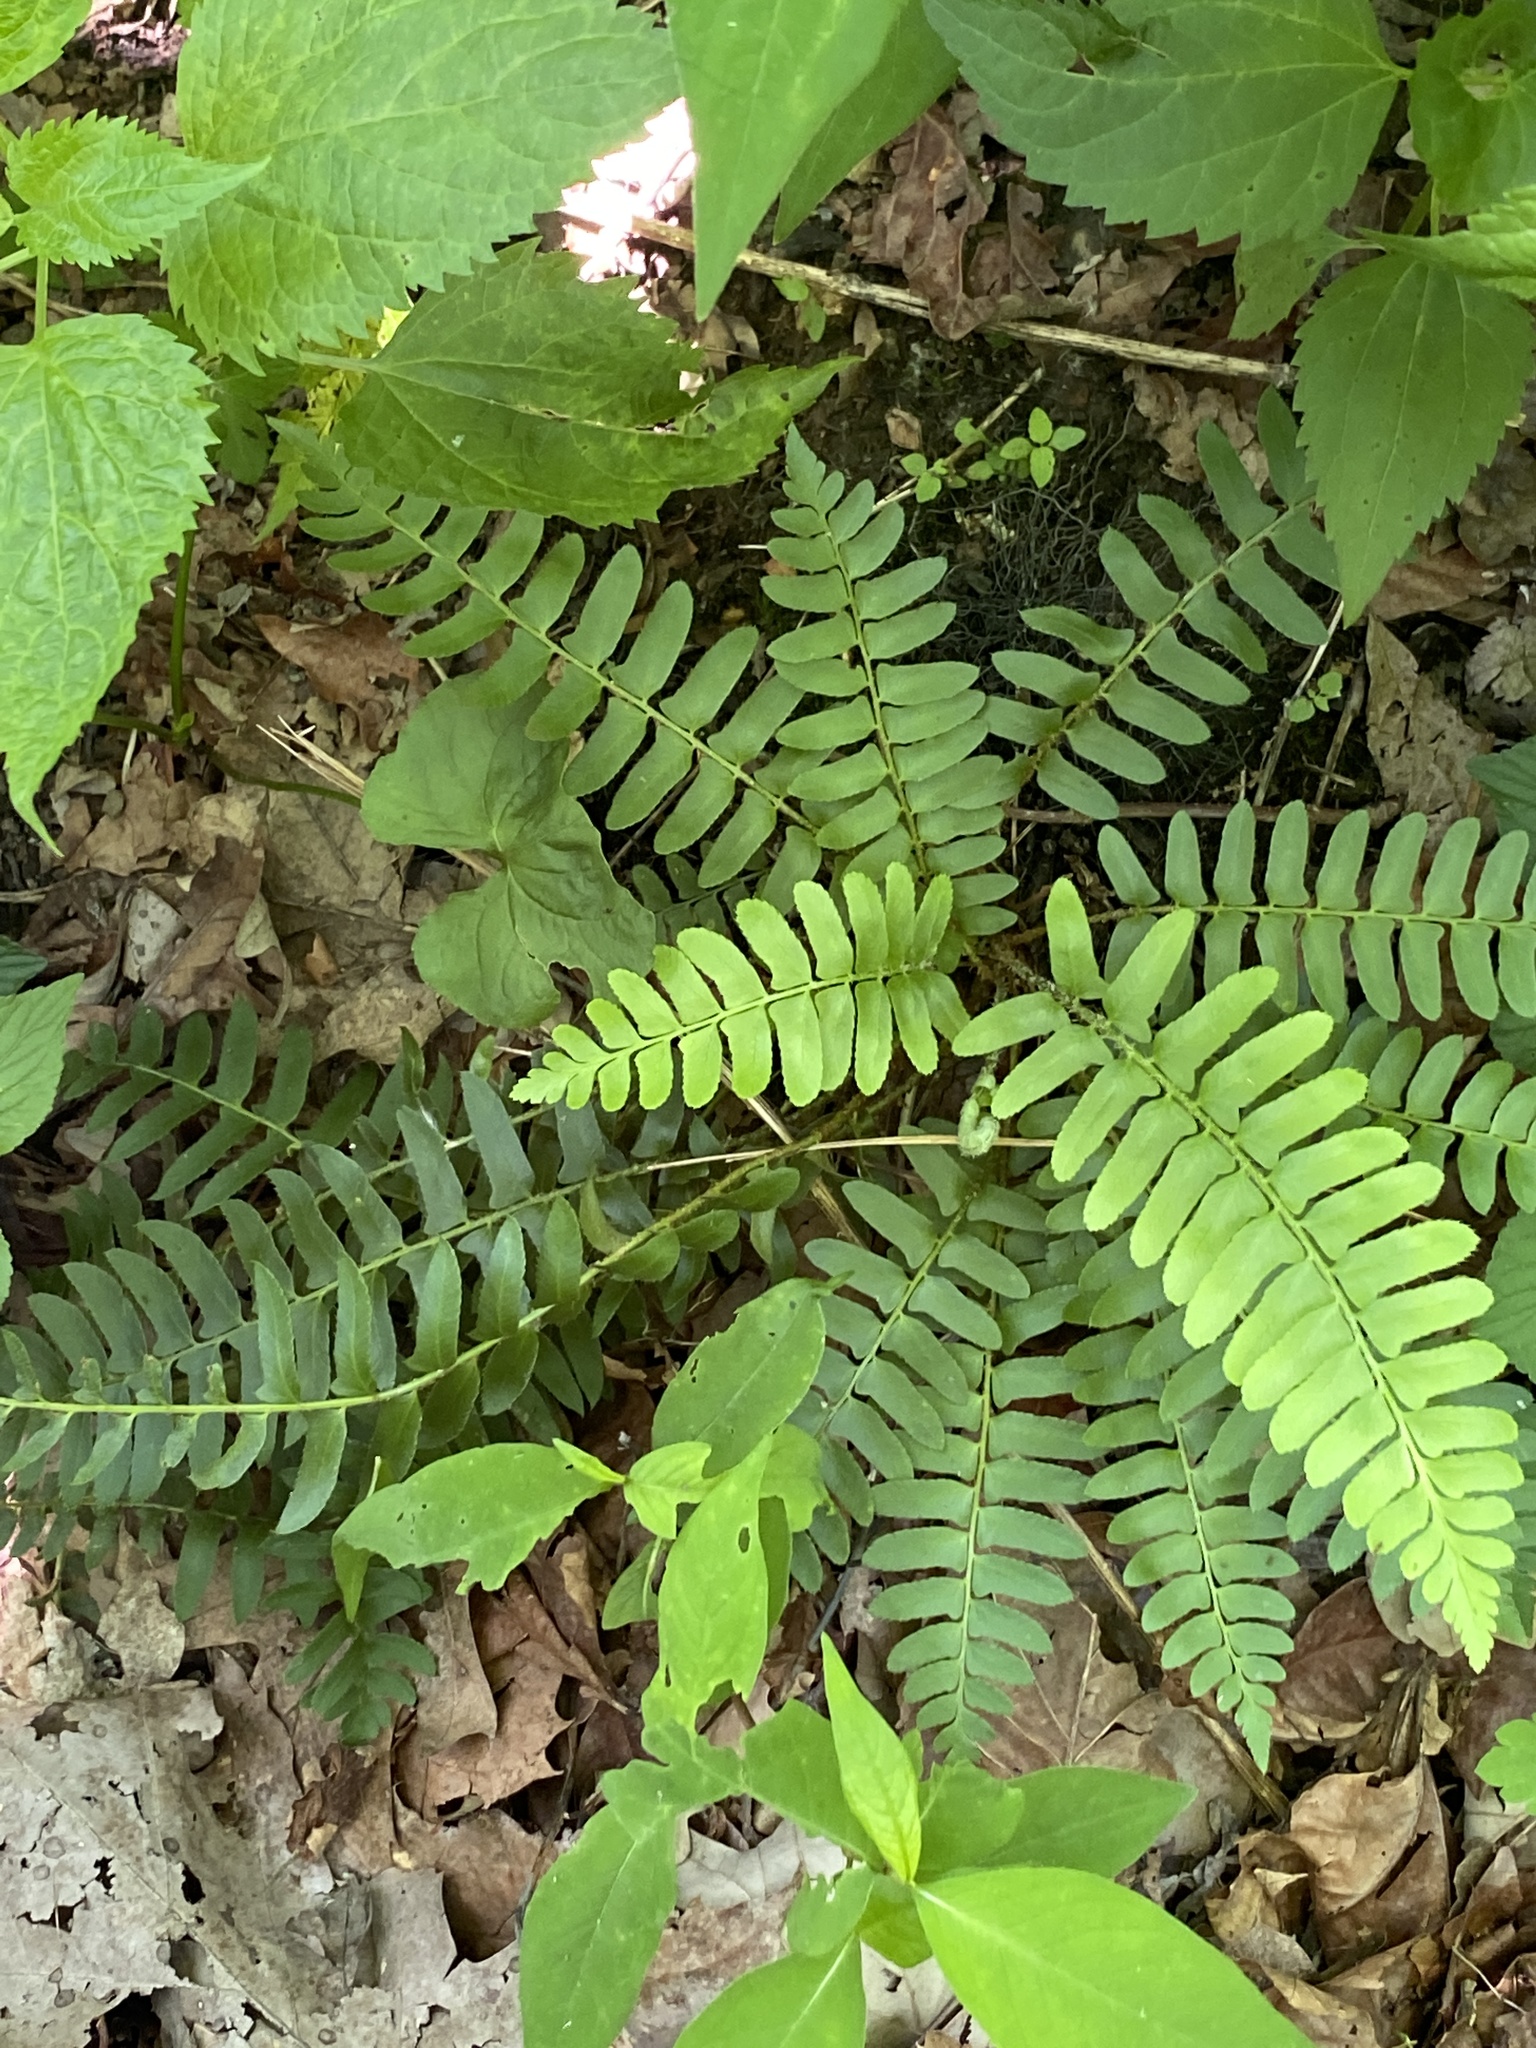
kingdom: Plantae
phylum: Tracheophyta
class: Polypodiopsida
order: Polypodiales
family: Dryopteridaceae
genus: Polystichum
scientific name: Polystichum acrostichoides
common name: Christmas fern
